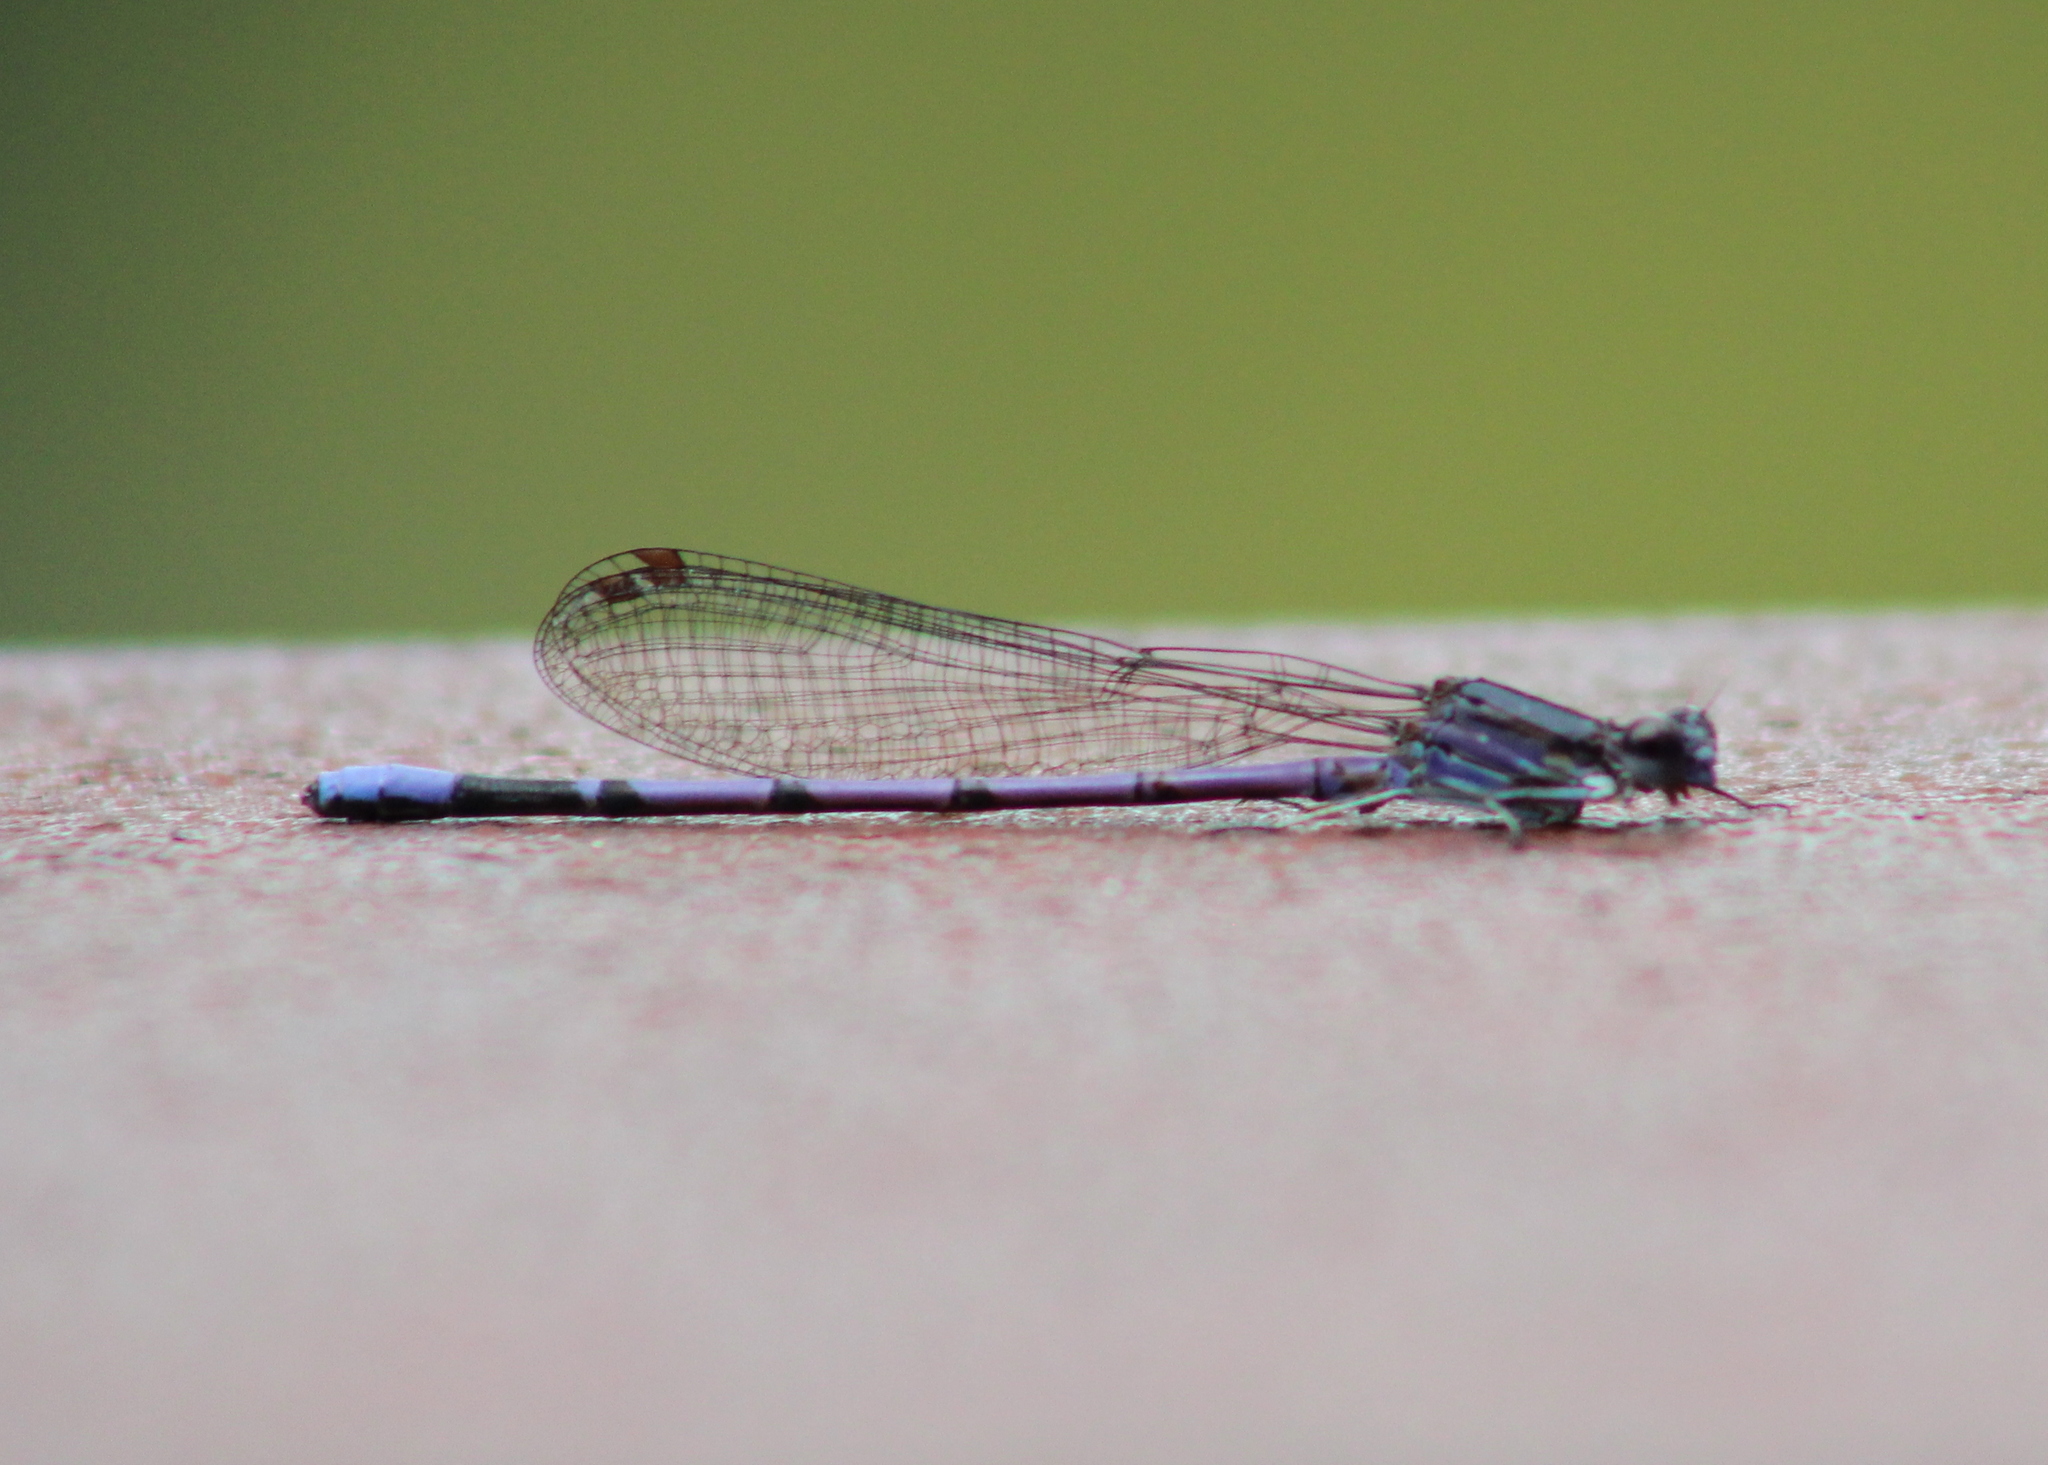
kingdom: Animalia
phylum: Arthropoda
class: Insecta
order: Odonata
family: Coenagrionidae
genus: Argia
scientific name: Argia fumipennis
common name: Variable dancer
